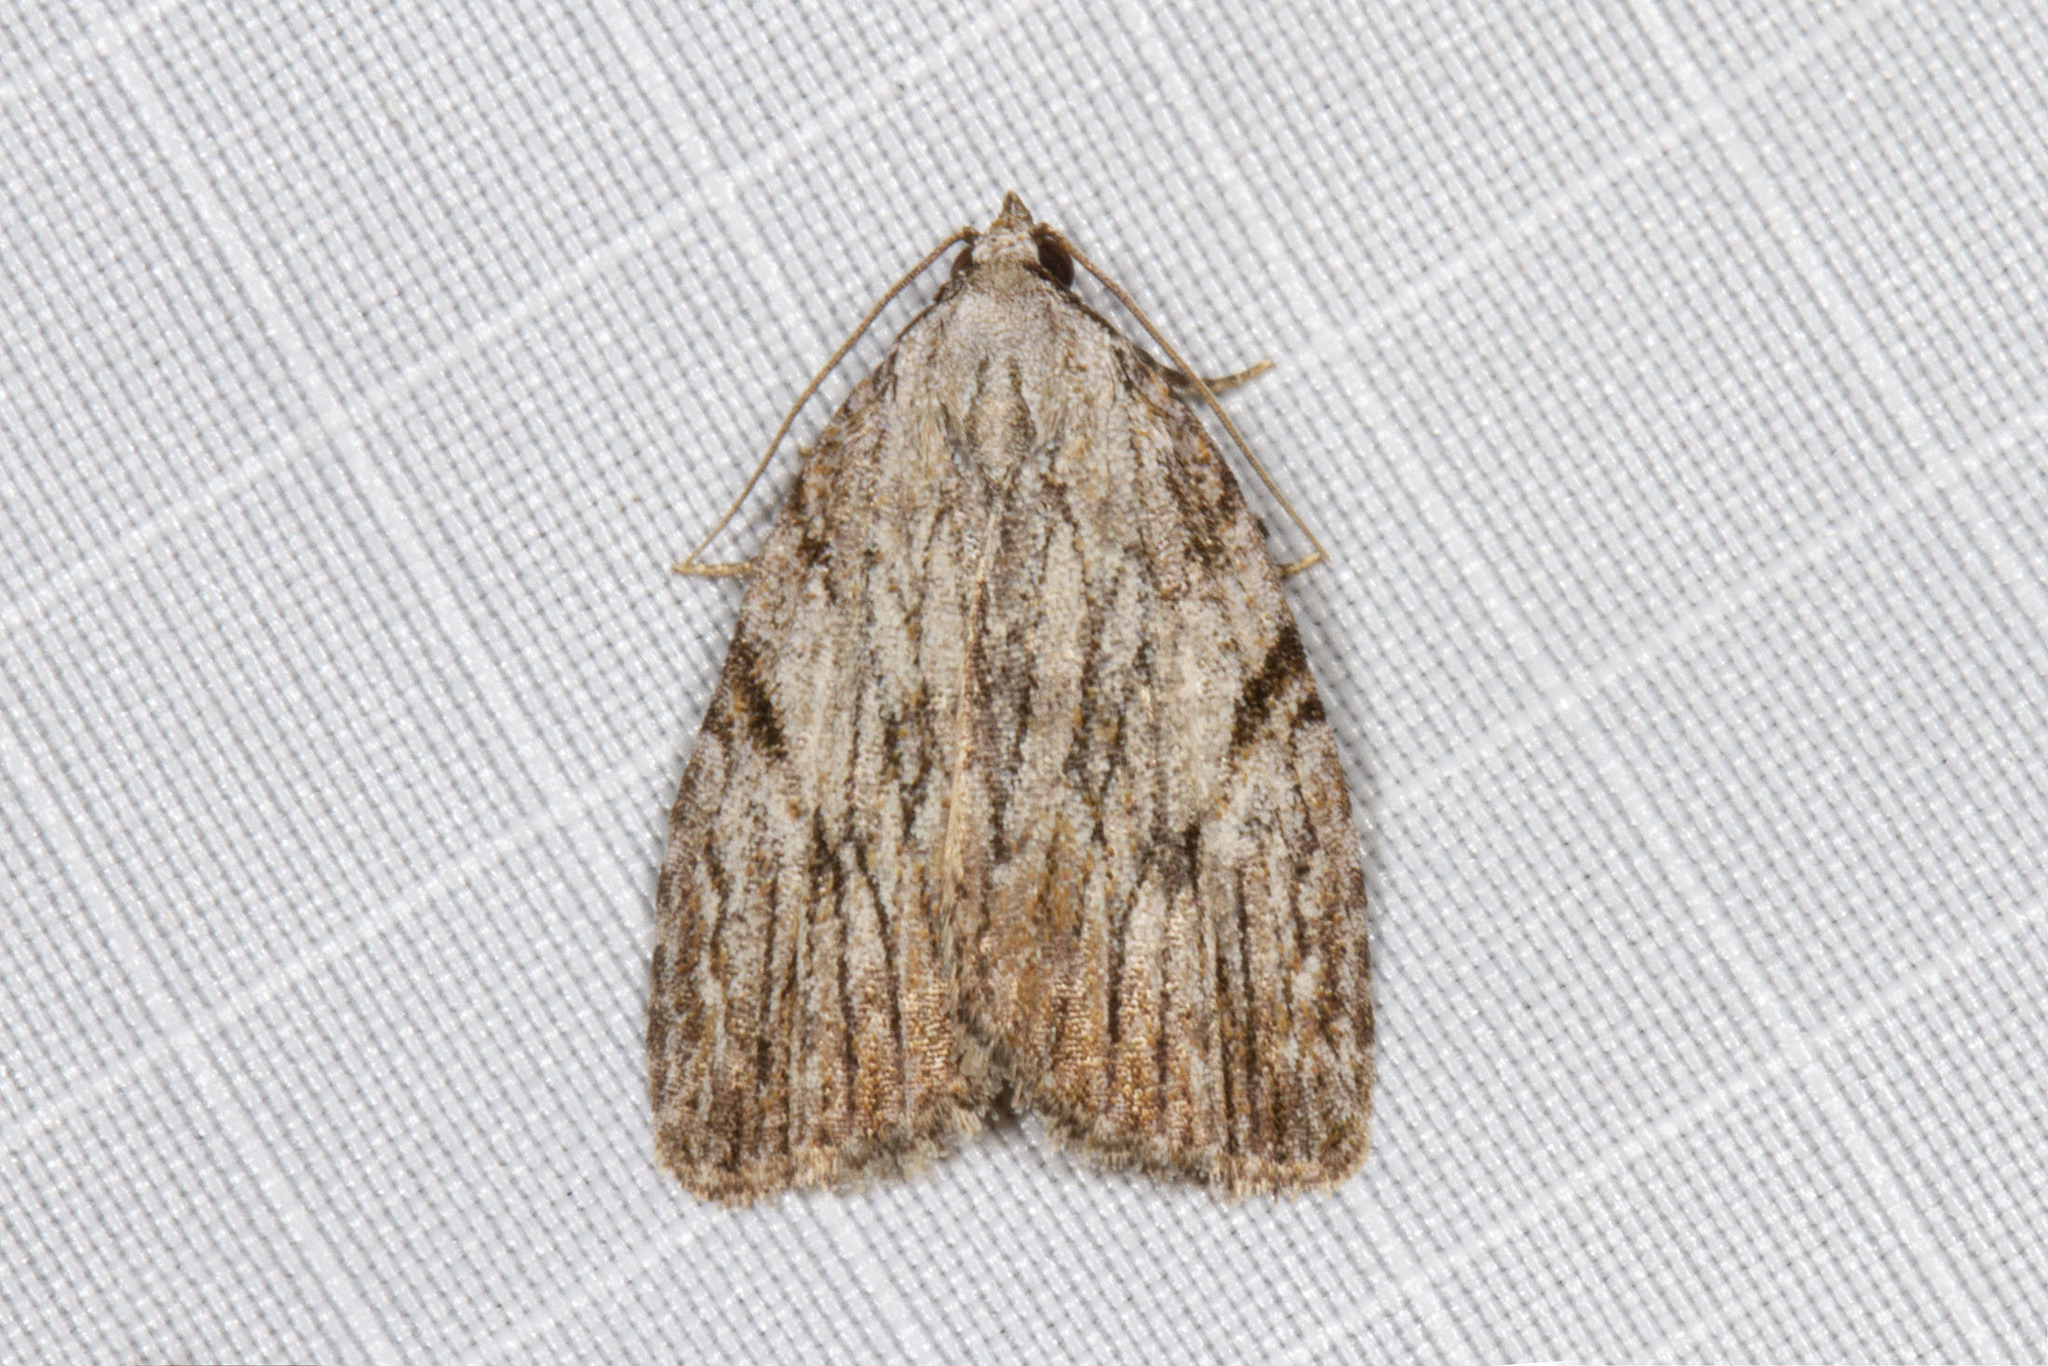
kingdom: Animalia
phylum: Arthropoda
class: Insecta
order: Lepidoptera
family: Noctuidae
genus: Balsa
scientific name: Balsa tristrigella
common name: Three-lined balsa moth
